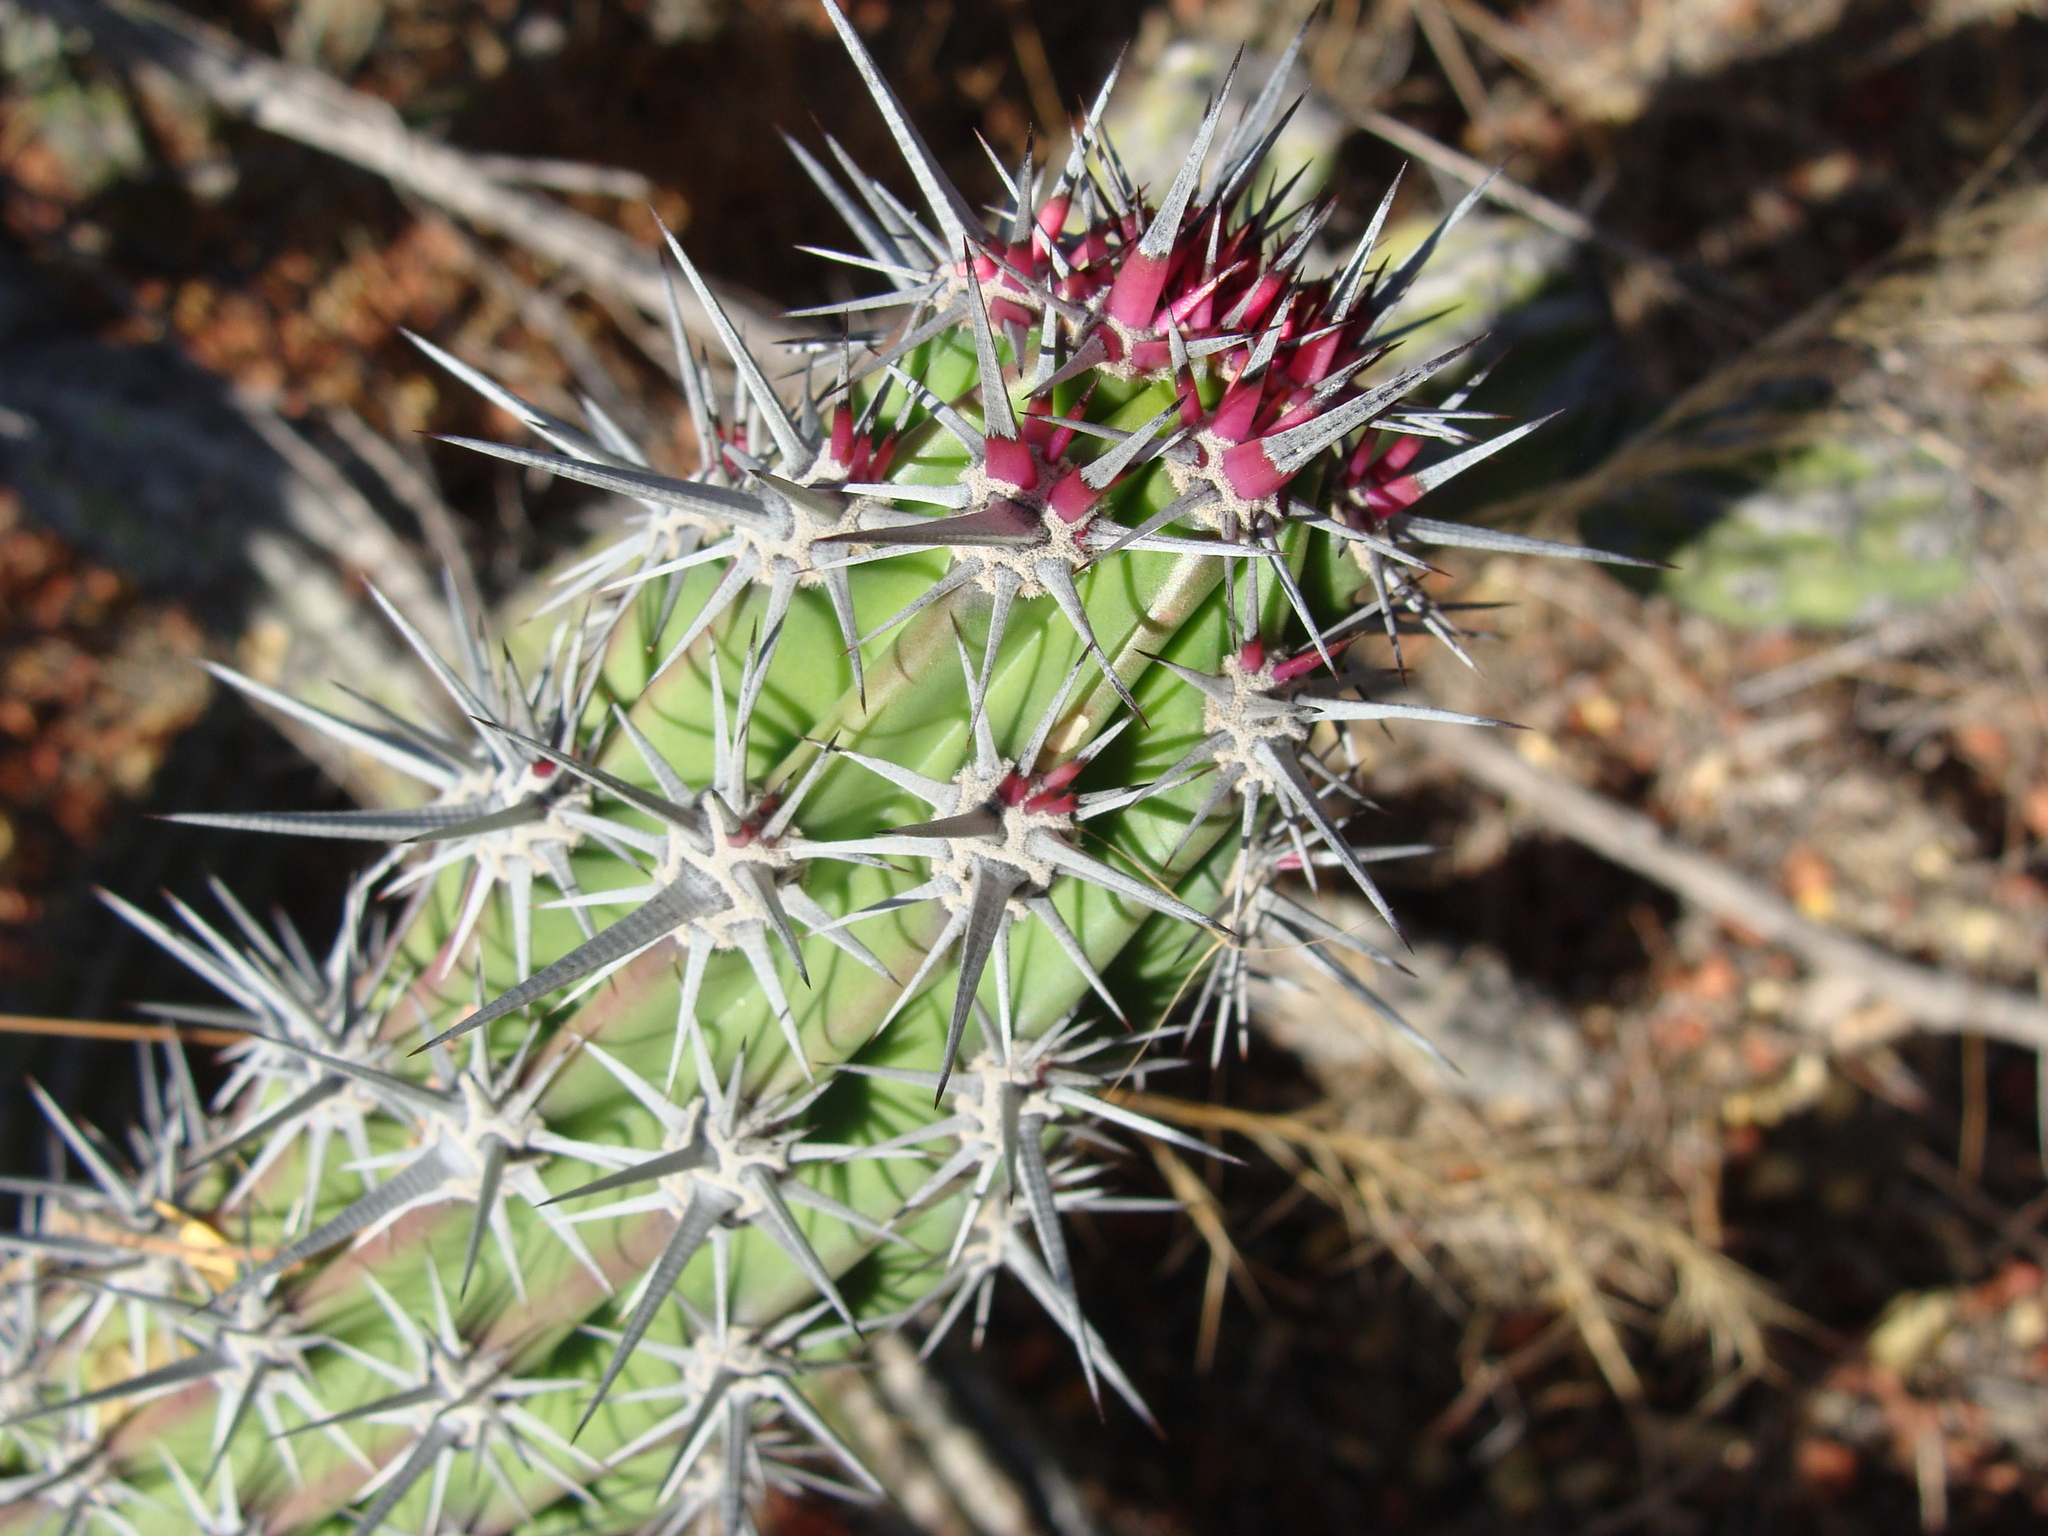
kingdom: Plantae
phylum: Tracheophyta
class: Magnoliopsida
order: Caryophyllales
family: Cactaceae
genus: Stenocereus
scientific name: Stenocereus gummosus
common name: Dagger cactus
